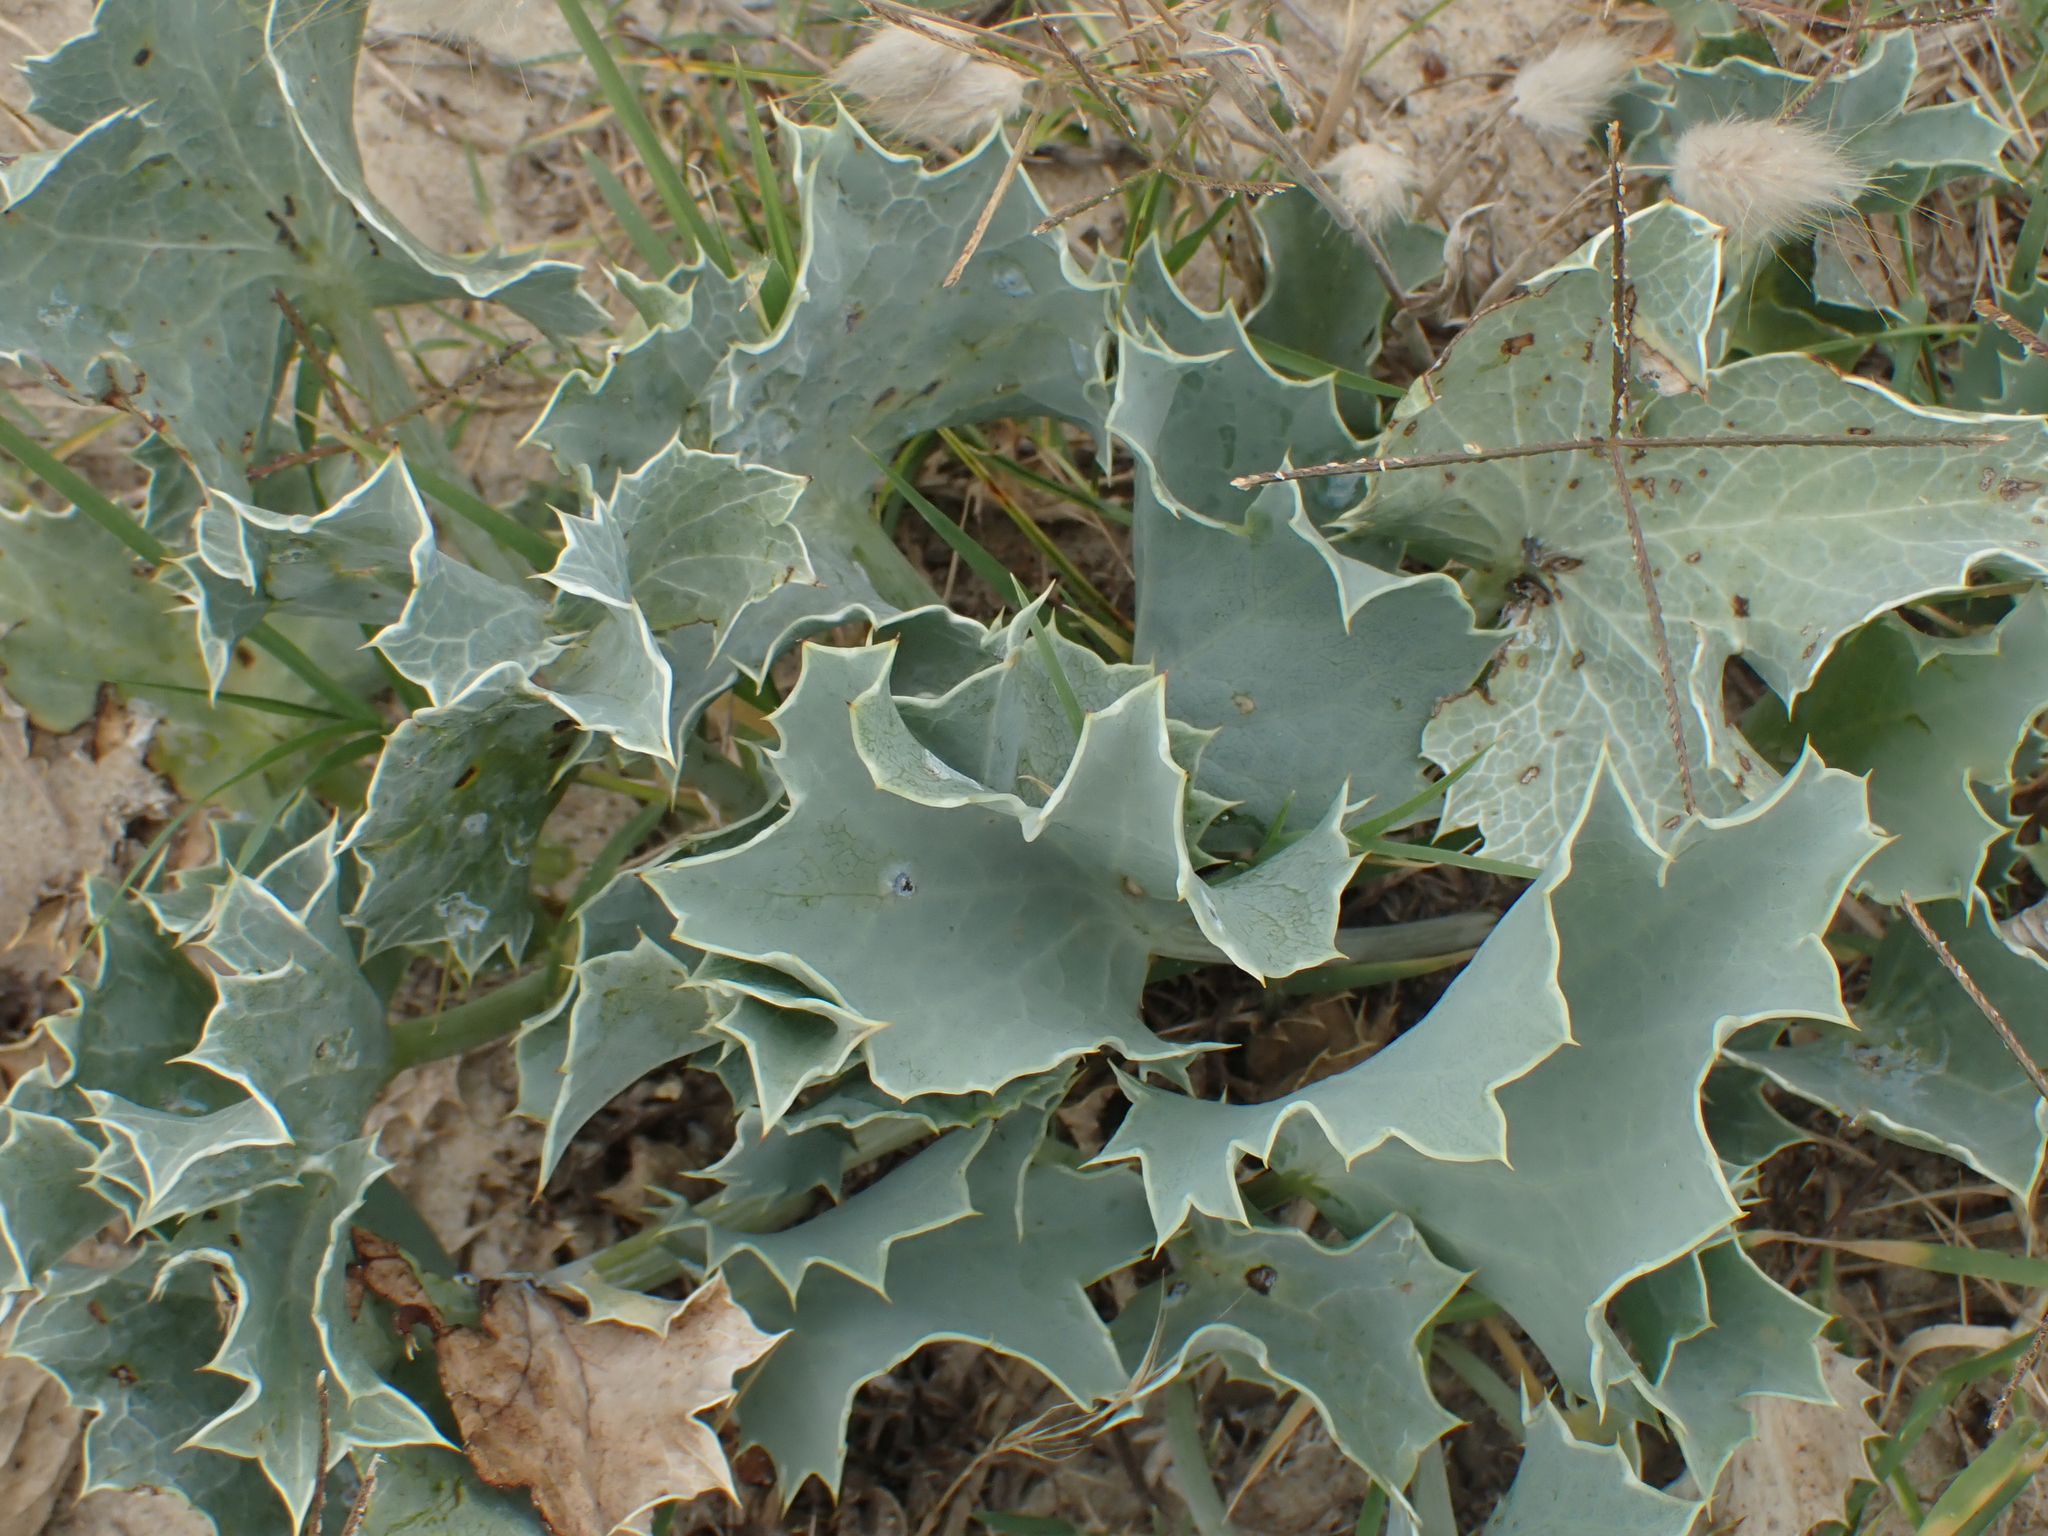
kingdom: Plantae
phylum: Tracheophyta
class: Magnoliopsida
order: Apiales
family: Apiaceae
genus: Eryngium
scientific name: Eryngium maritimum
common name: Sea-holly
